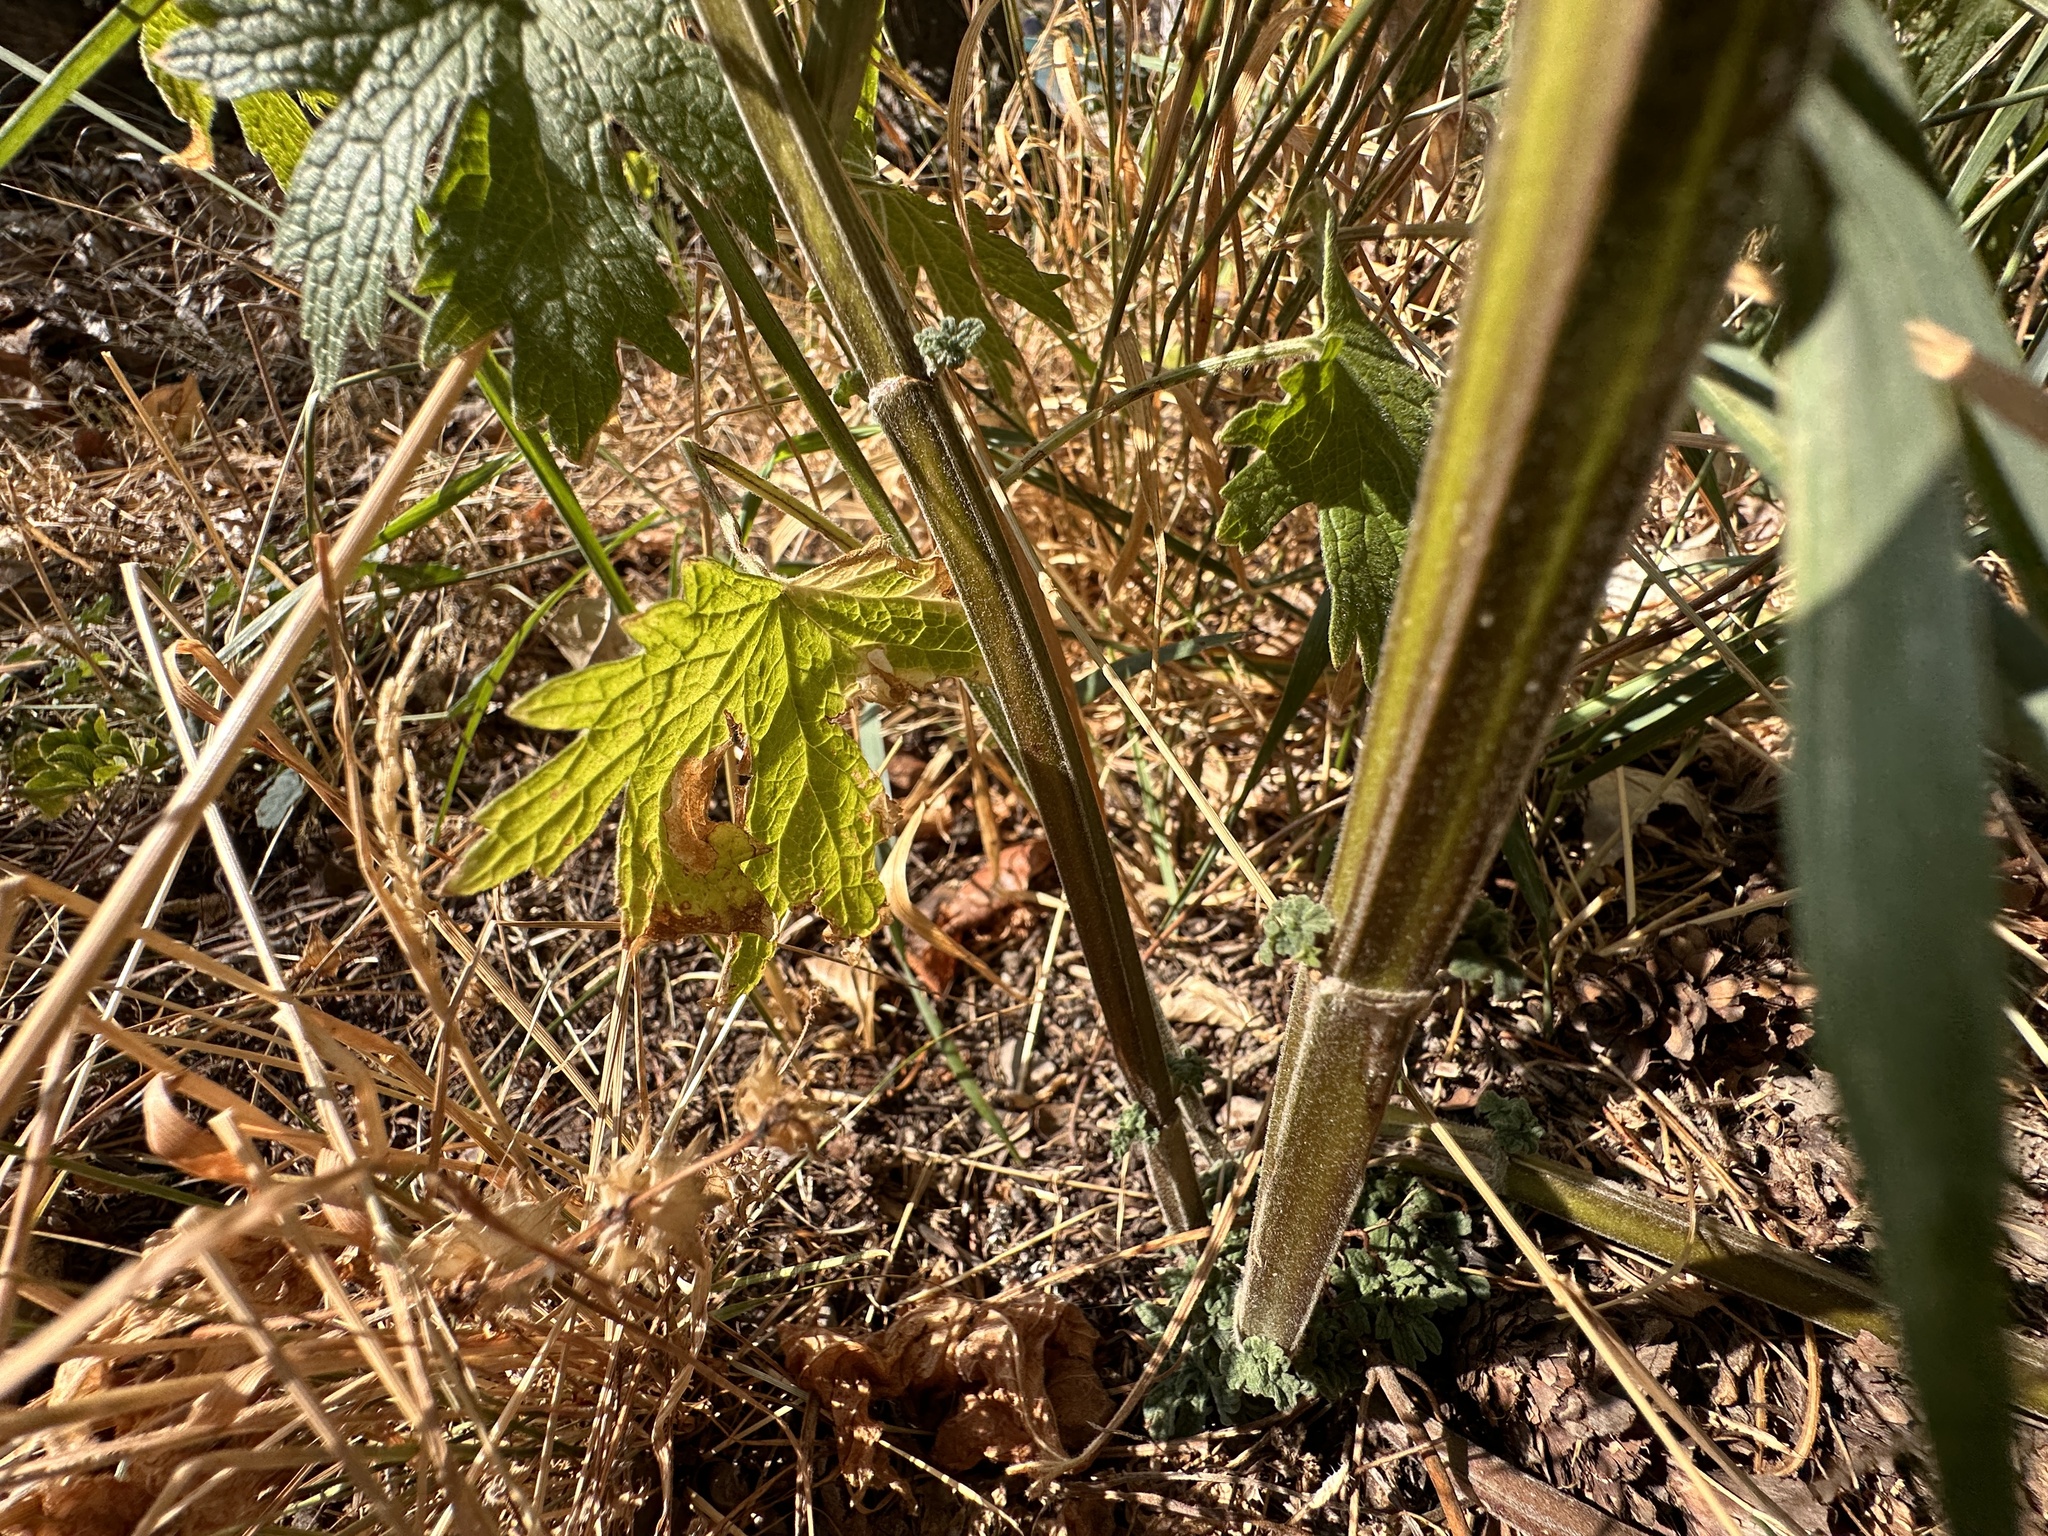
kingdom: Plantae
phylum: Tracheophyta
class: Magnoliopsida
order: Lamiales
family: Lamiaceae
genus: Leonurus
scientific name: Leonurus cardiaca
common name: Motherwort
